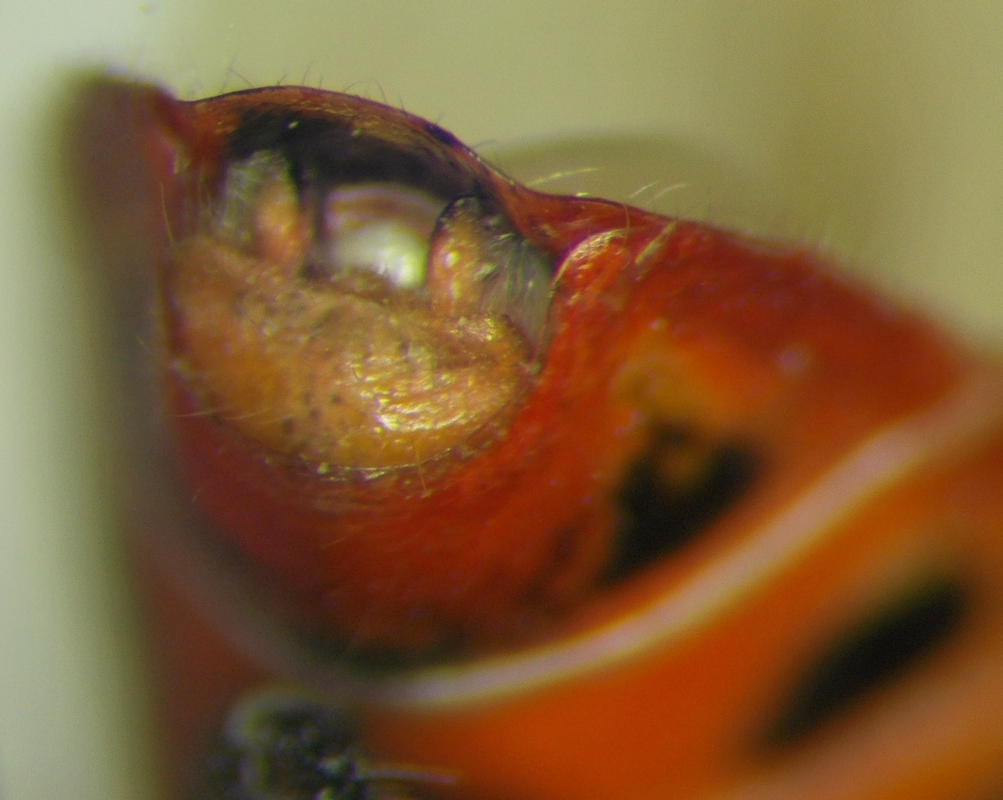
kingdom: Animalia
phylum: Arthropoda
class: Insecta
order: Hemiptera
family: Rhopalidae
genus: Corizus
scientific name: Corizus hyoscyami
